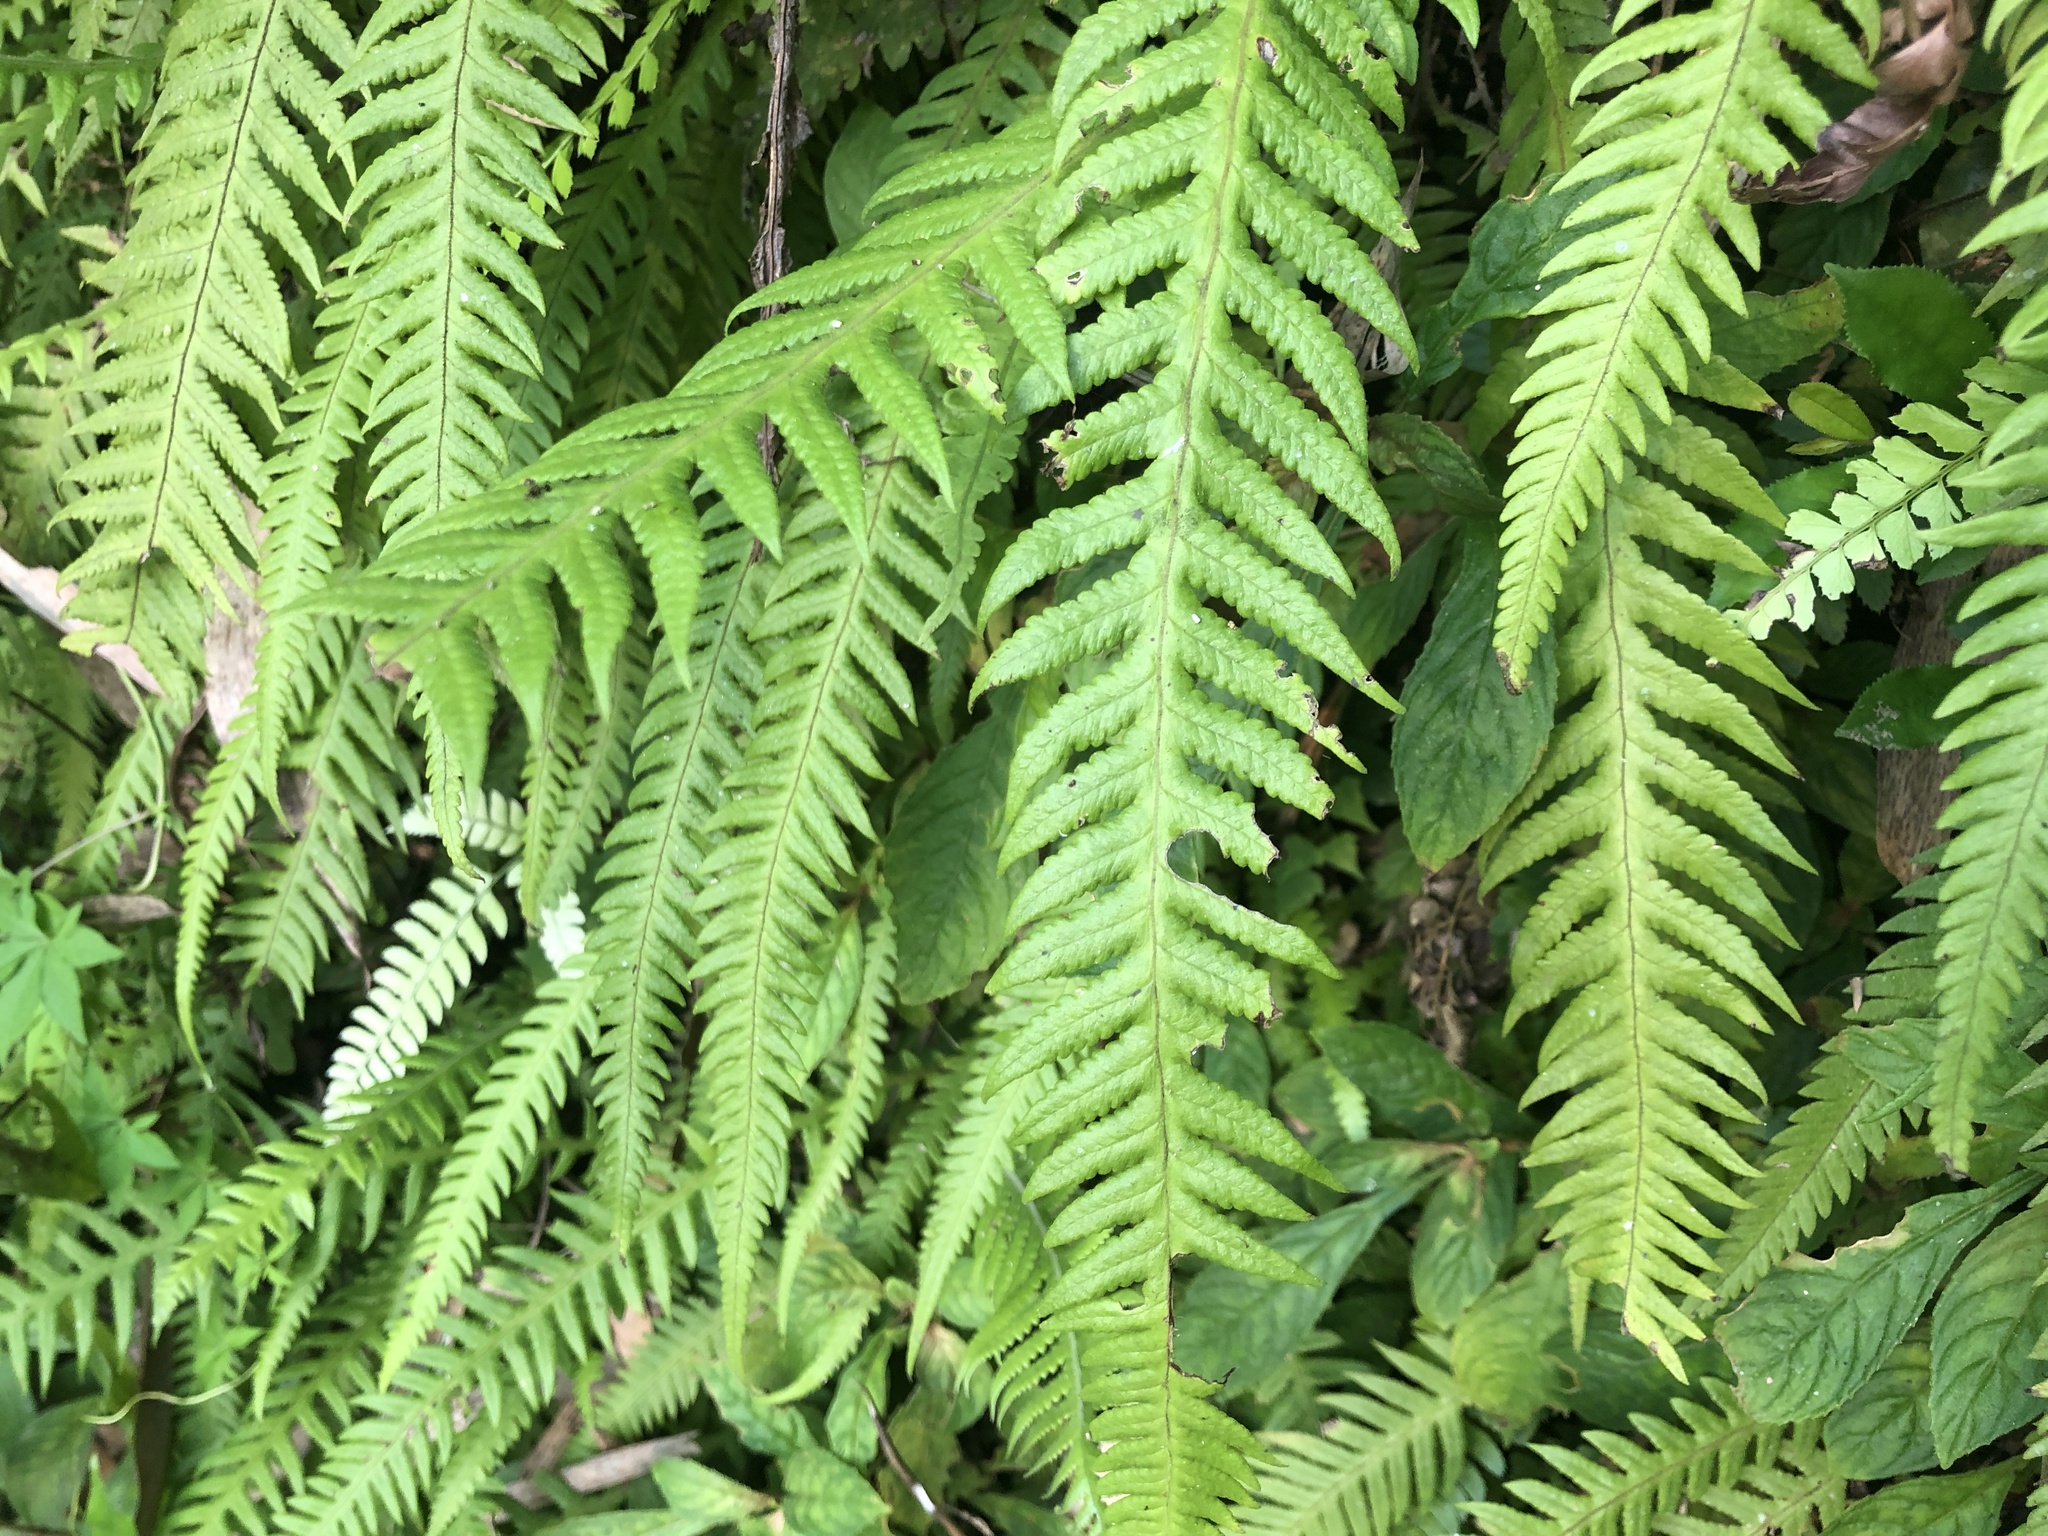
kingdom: Plantae
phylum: Tracheophyta
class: Polypodiopsida
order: Polypodiales
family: Thelypteridaceae
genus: Phegopteris
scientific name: Phegopteris decursive-pinnata
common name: Japanese beech fern
